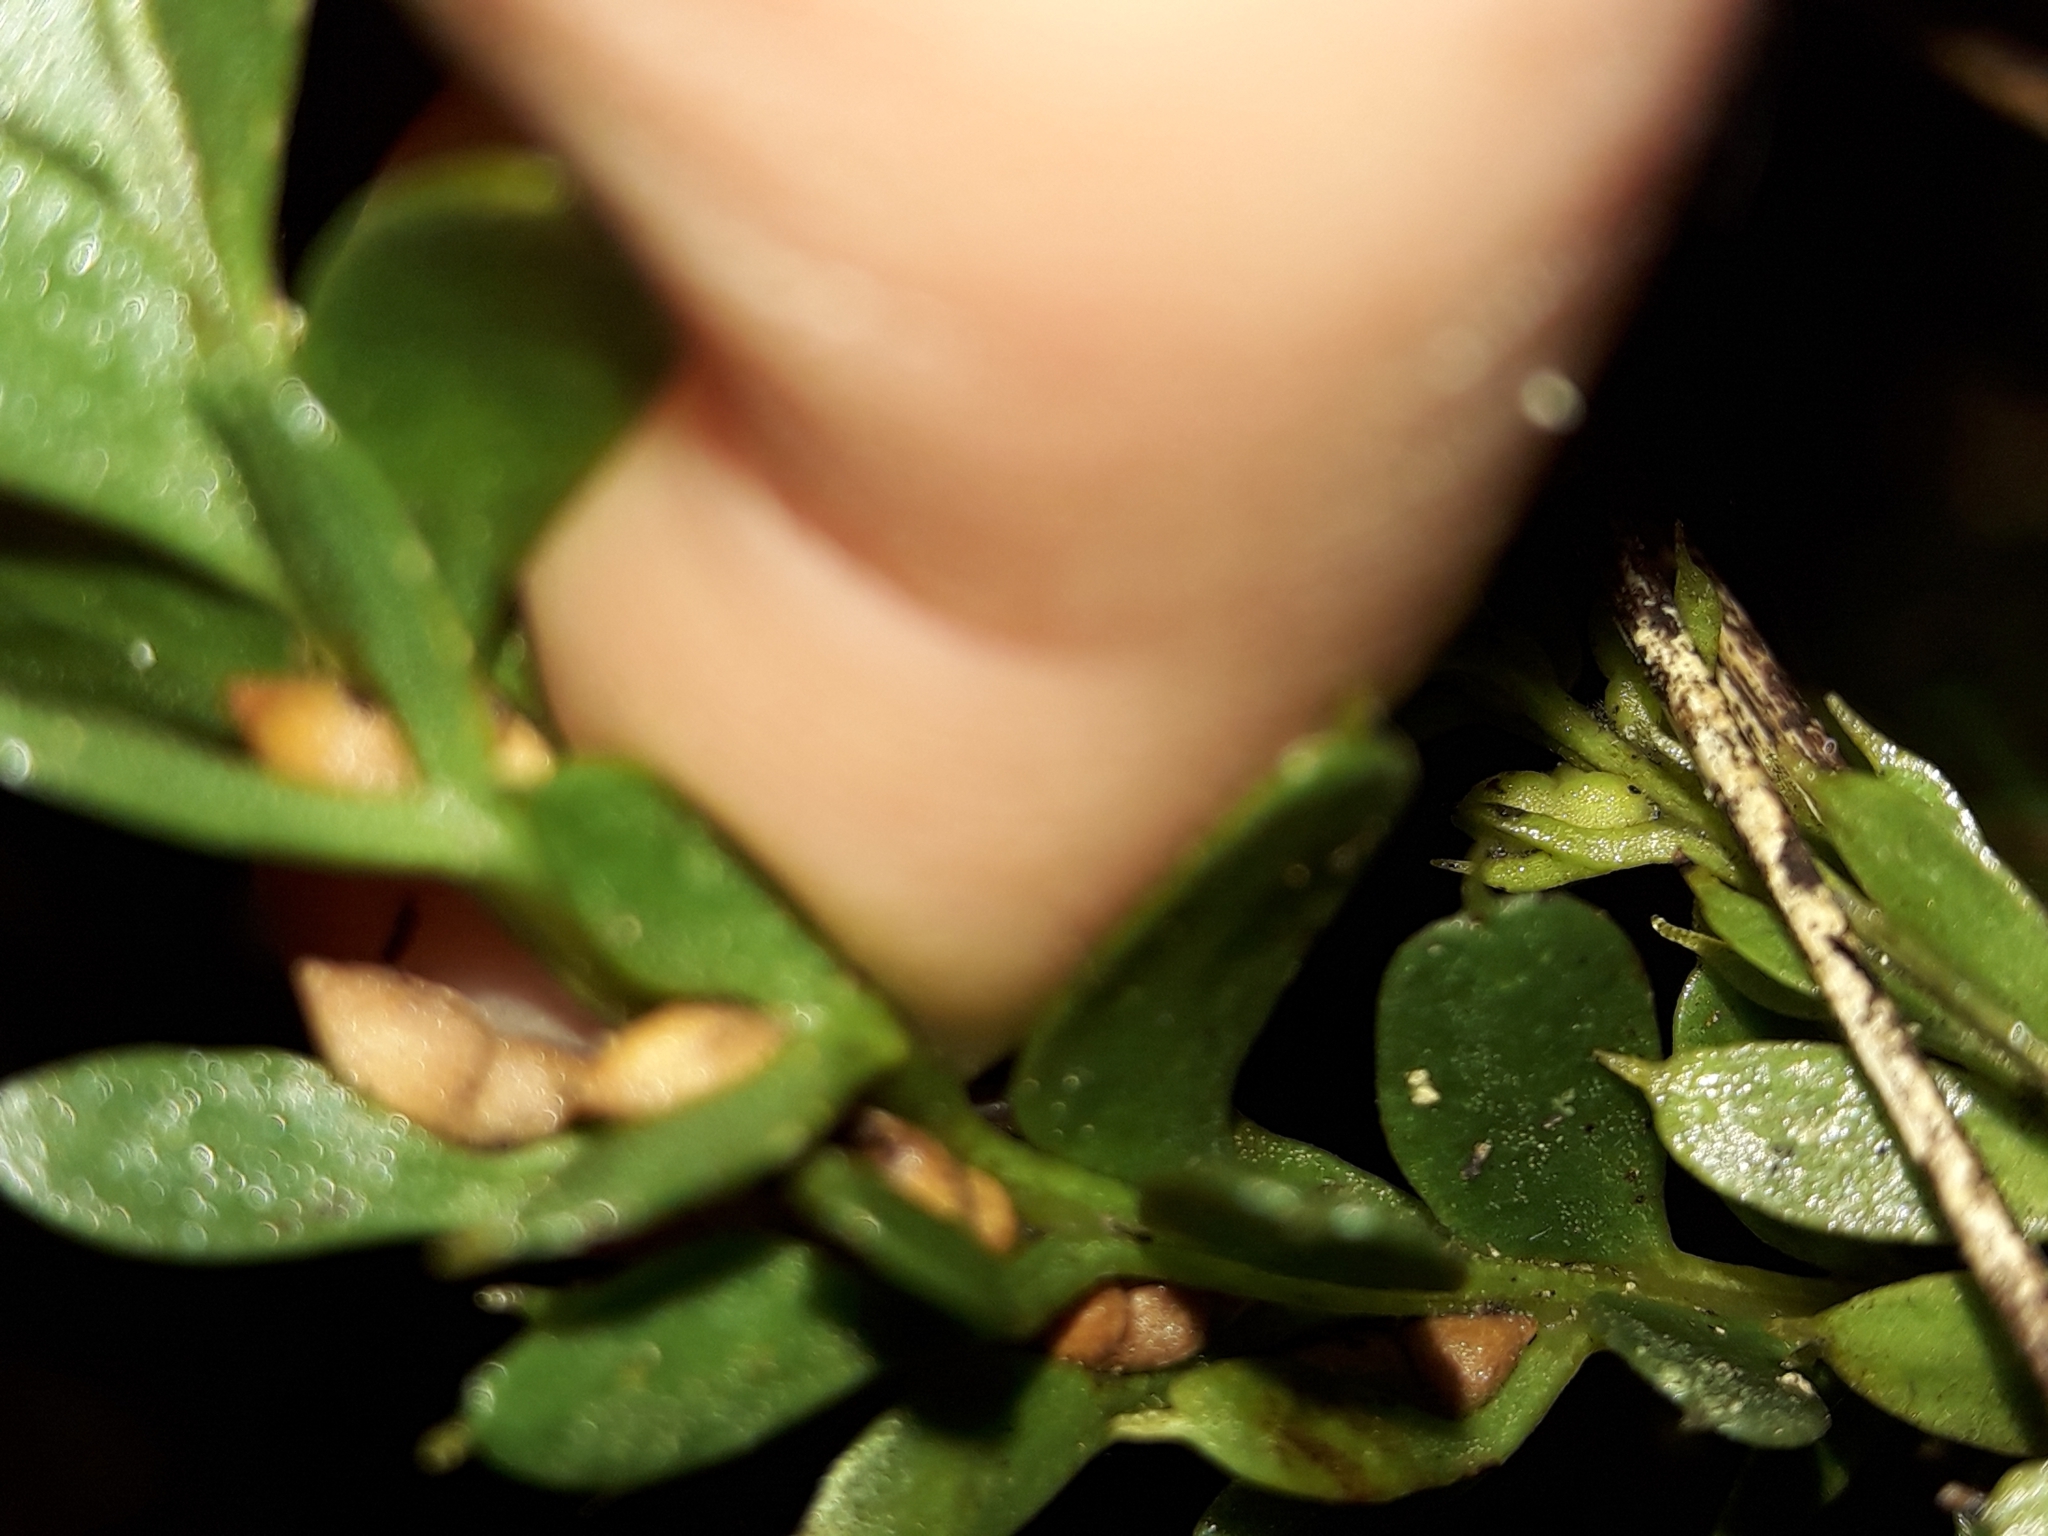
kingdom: Plantae
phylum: Tracheophyta
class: Polypodiopsida
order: Psilotales
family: Psilotaceae
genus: Tmesipteris
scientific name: Tmesipteris tannensis
